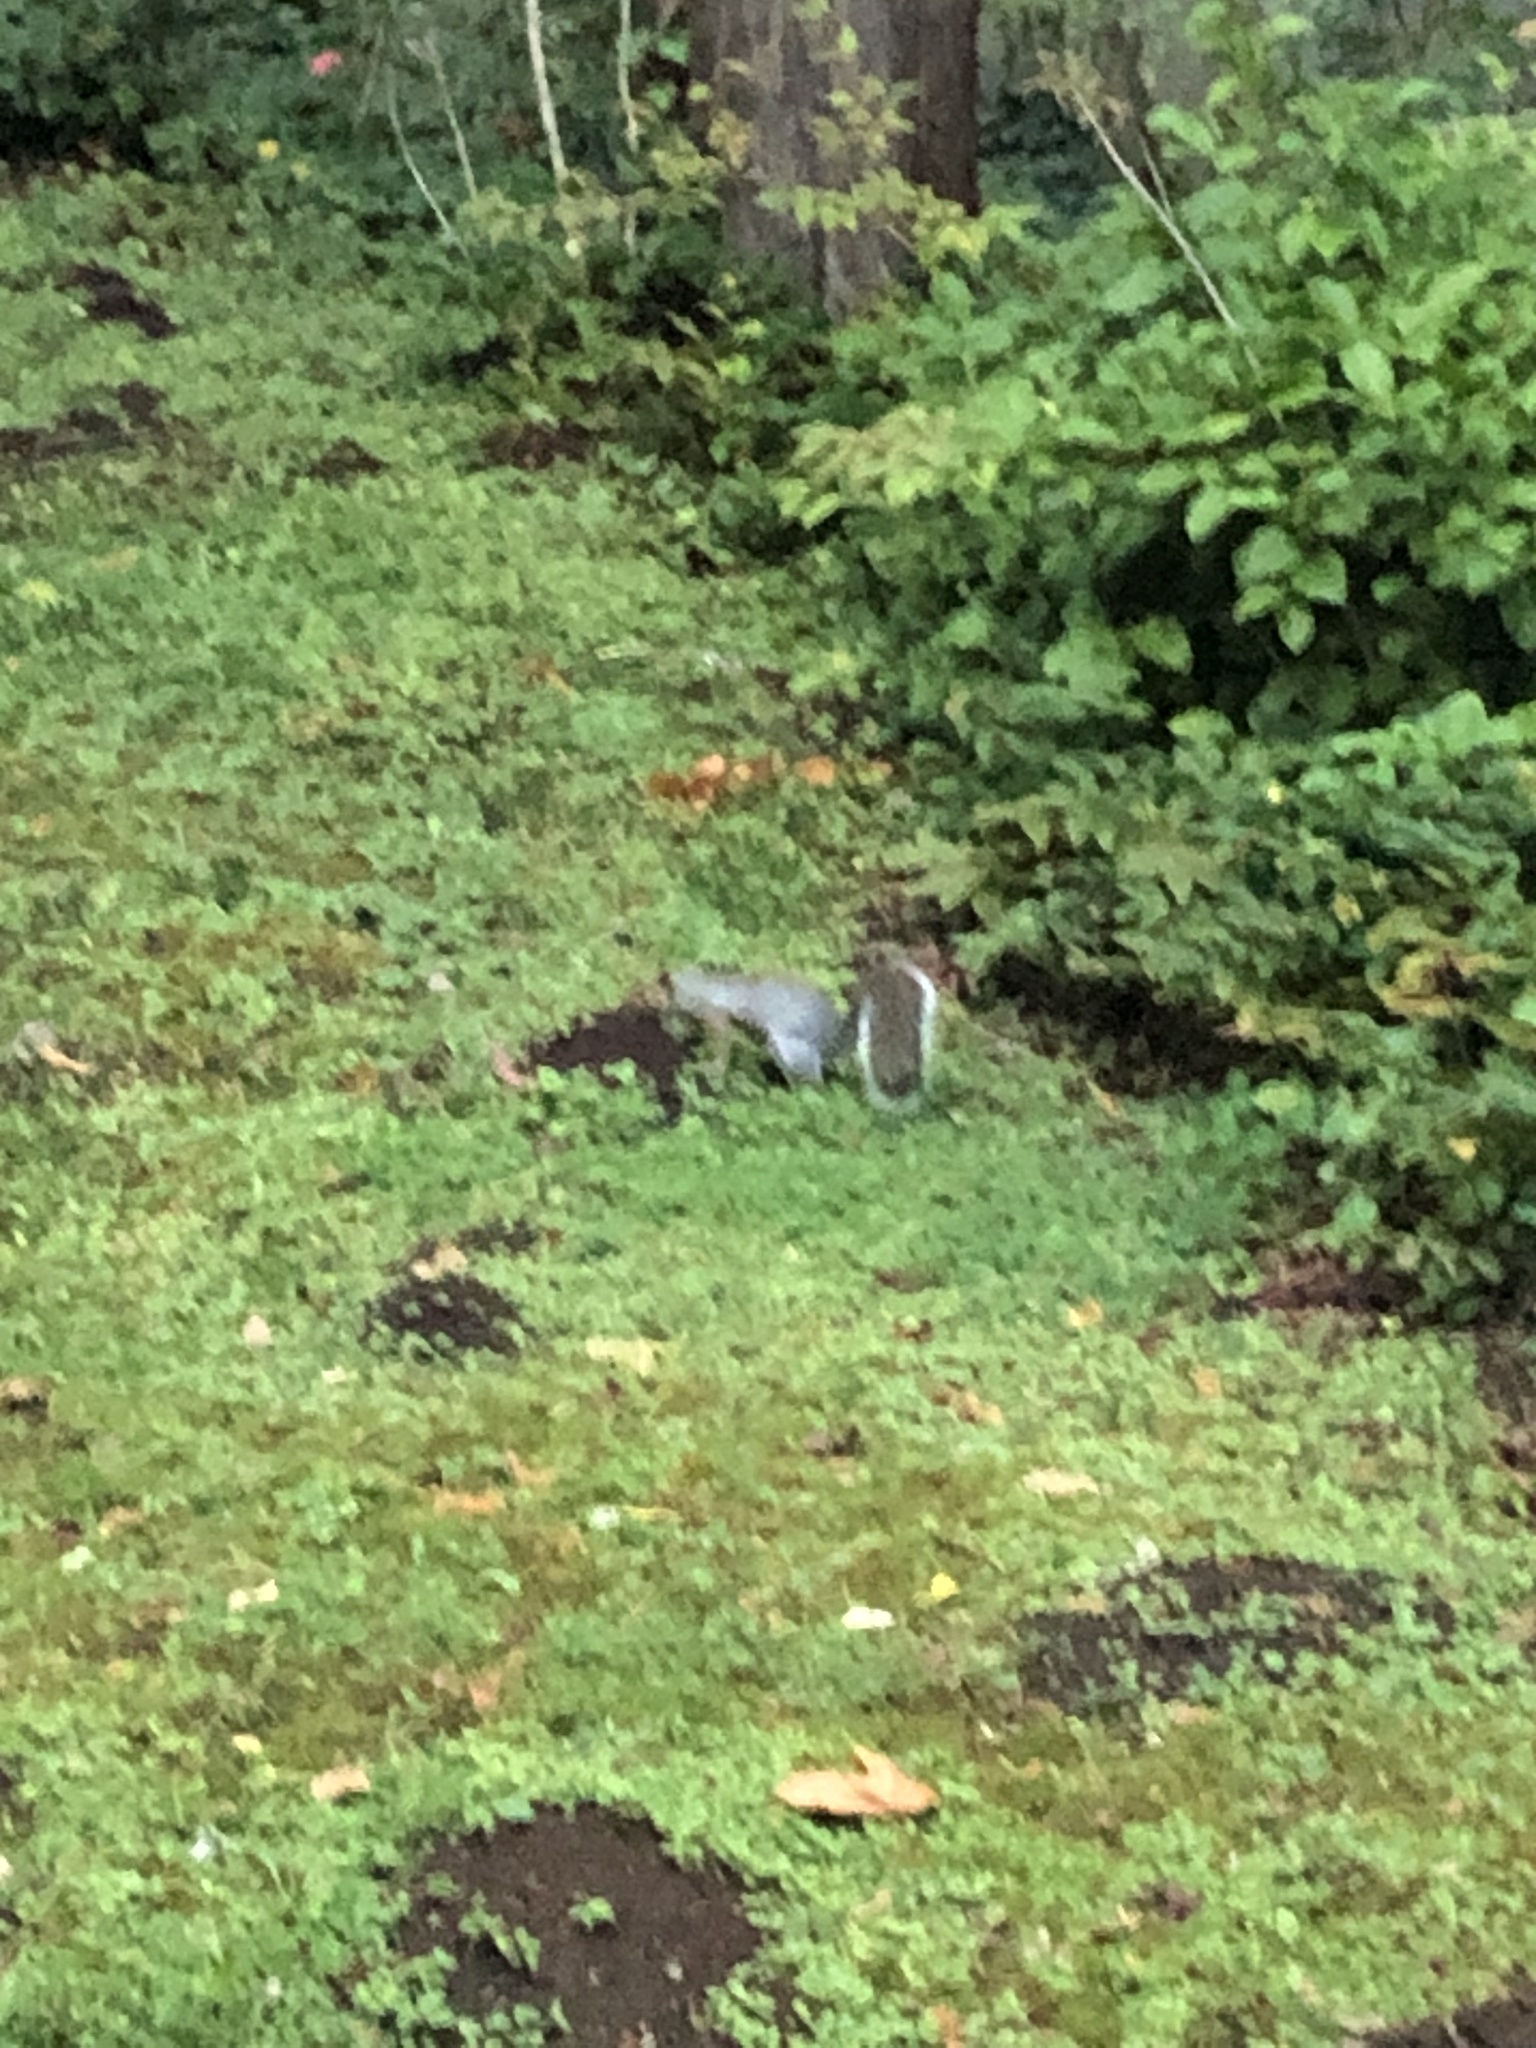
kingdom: Animalia
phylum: Chordata
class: Mammalia
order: Rodentia
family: Sciuridae
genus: Sciurus
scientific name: Sciurus carolinensis
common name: Eastern gray squirrel
